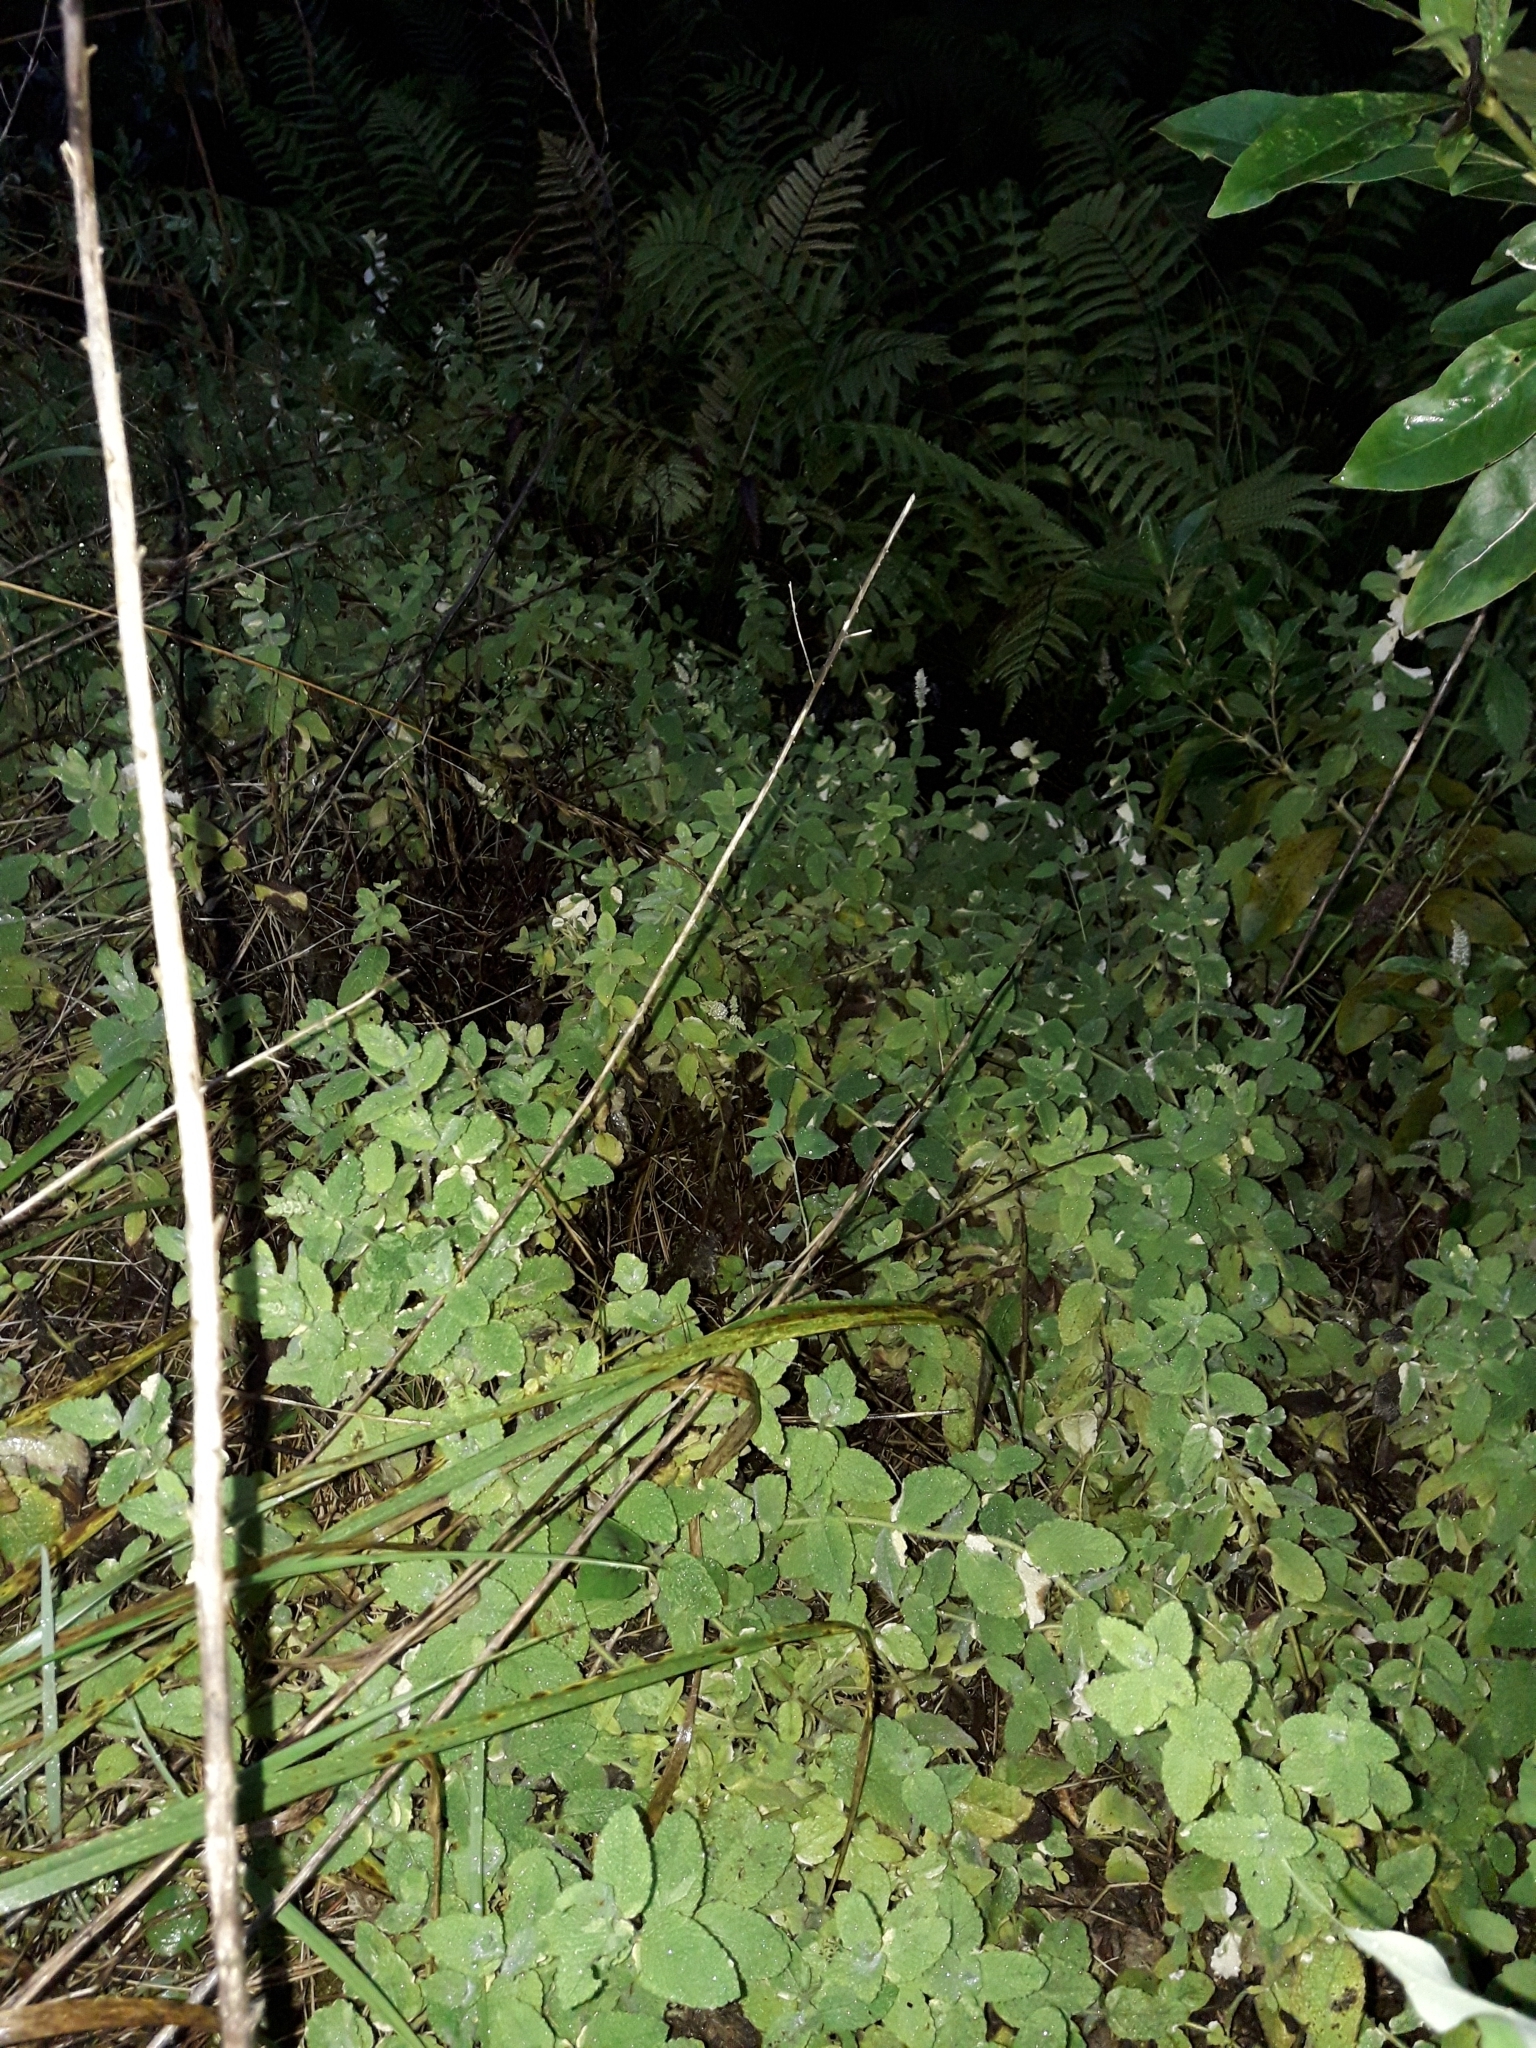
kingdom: Plantae
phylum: Tracheophyta
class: Magnoliopsida
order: Lamiales
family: Lamiaceae
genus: Mentha
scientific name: Mentha suaveolens
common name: Apple mint
